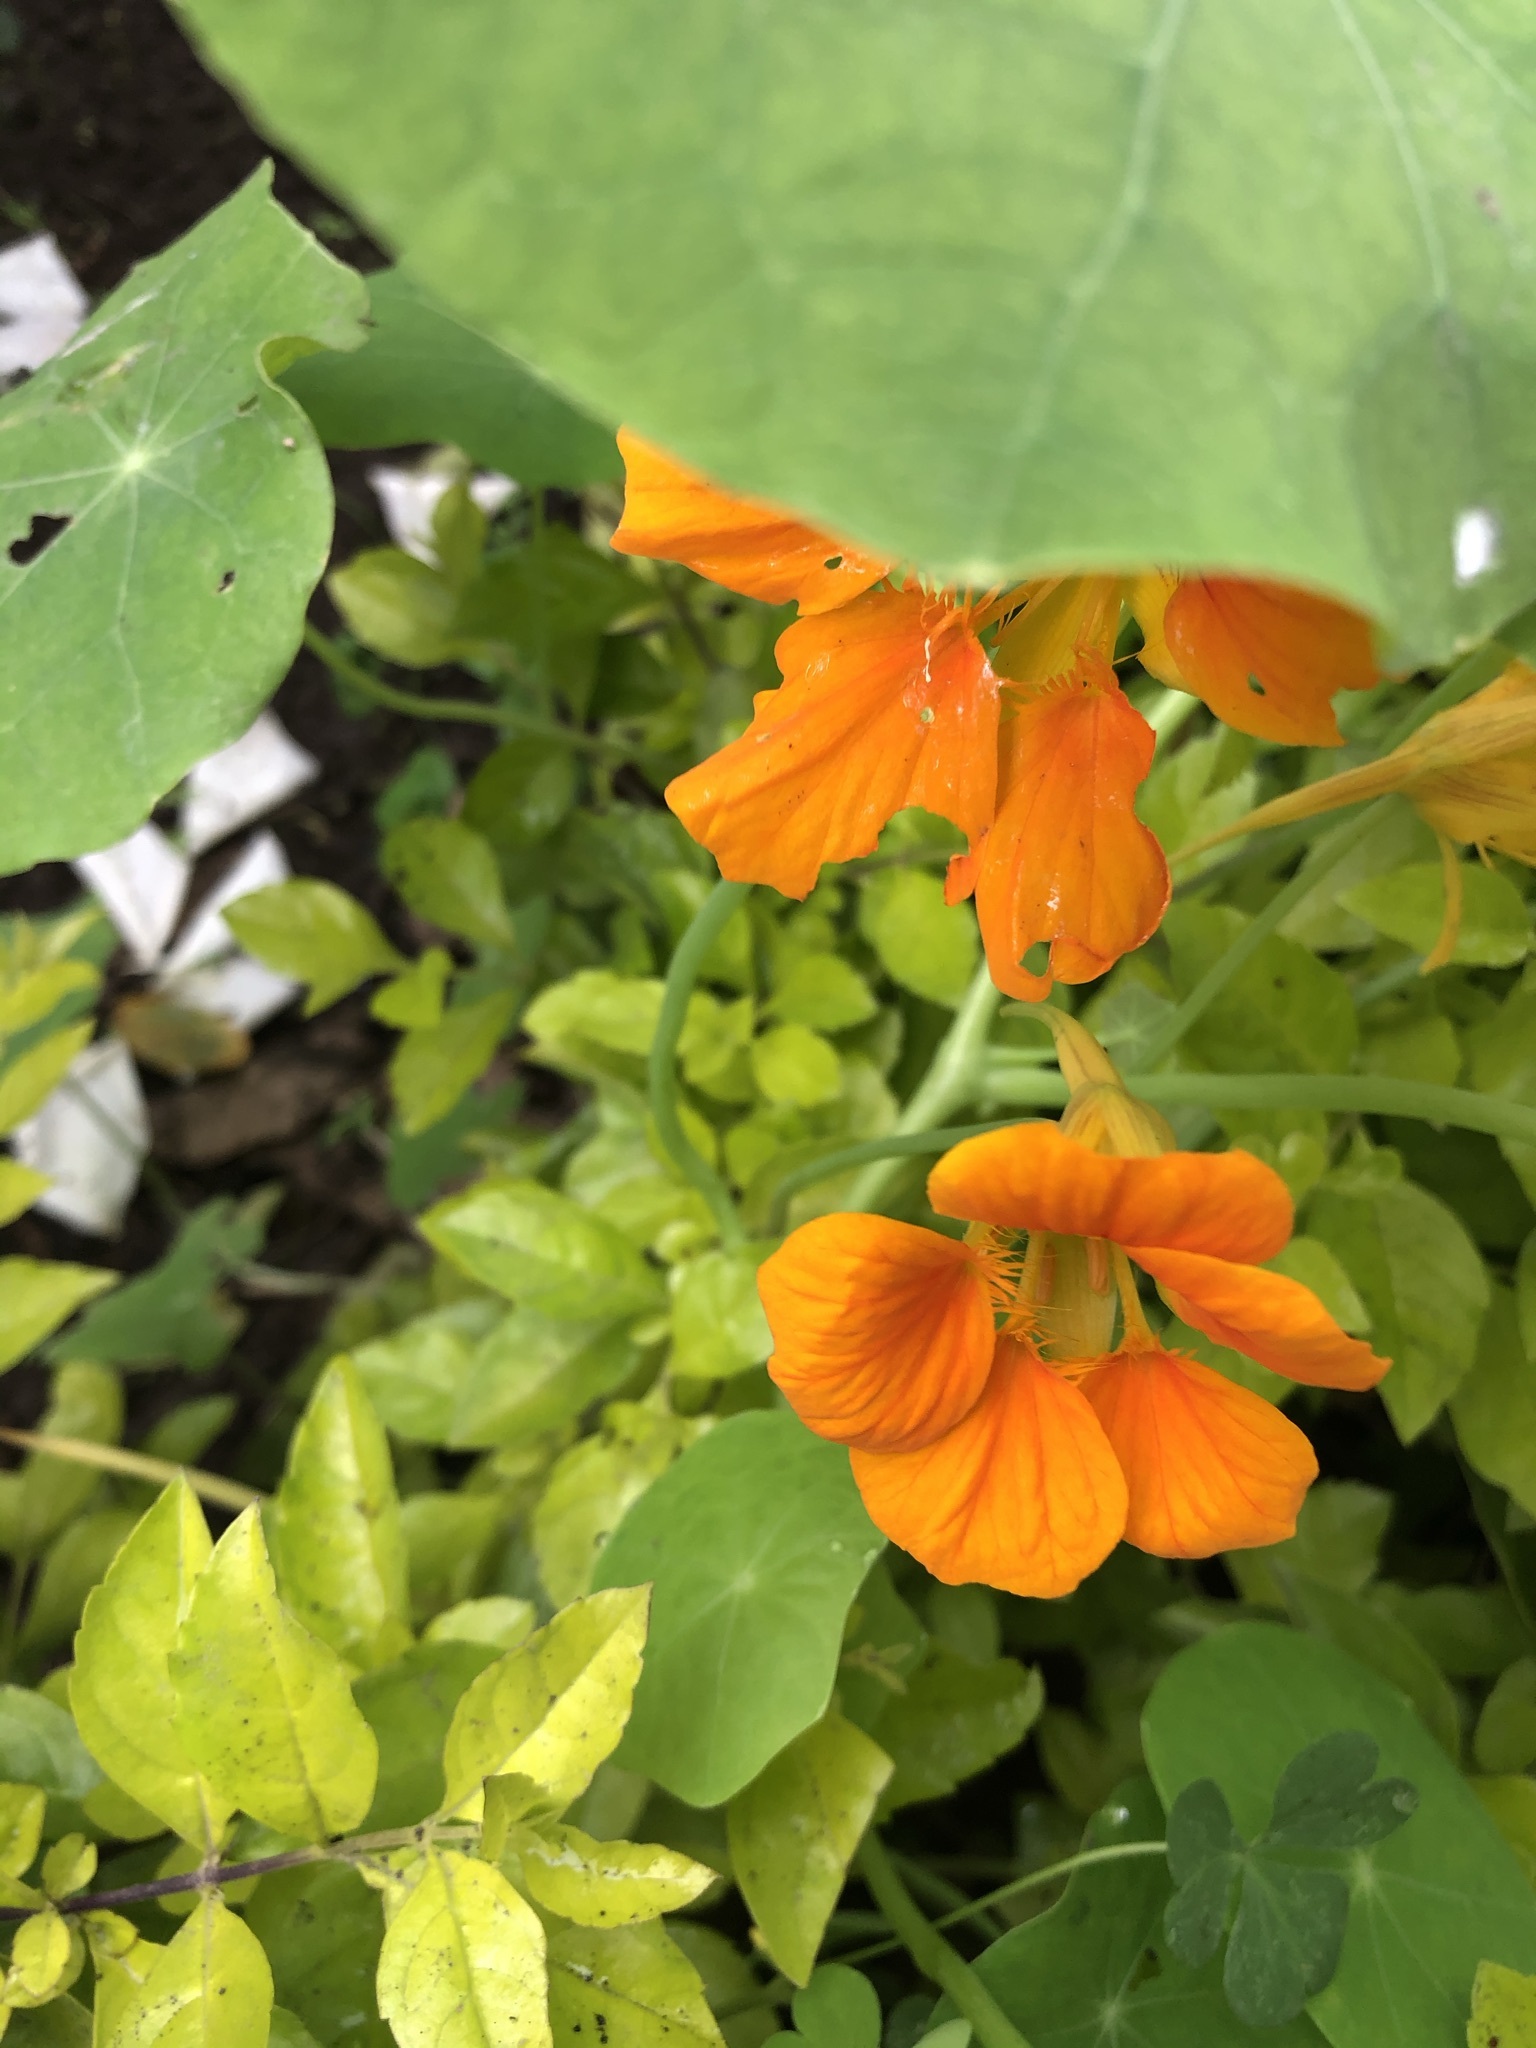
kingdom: Plantae
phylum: Tracheophyta
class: Magnoliopsida
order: Brassicales
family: Tropaeolaceae
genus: Tropaeolum
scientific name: Tropaeolum majus
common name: Nasturtium
